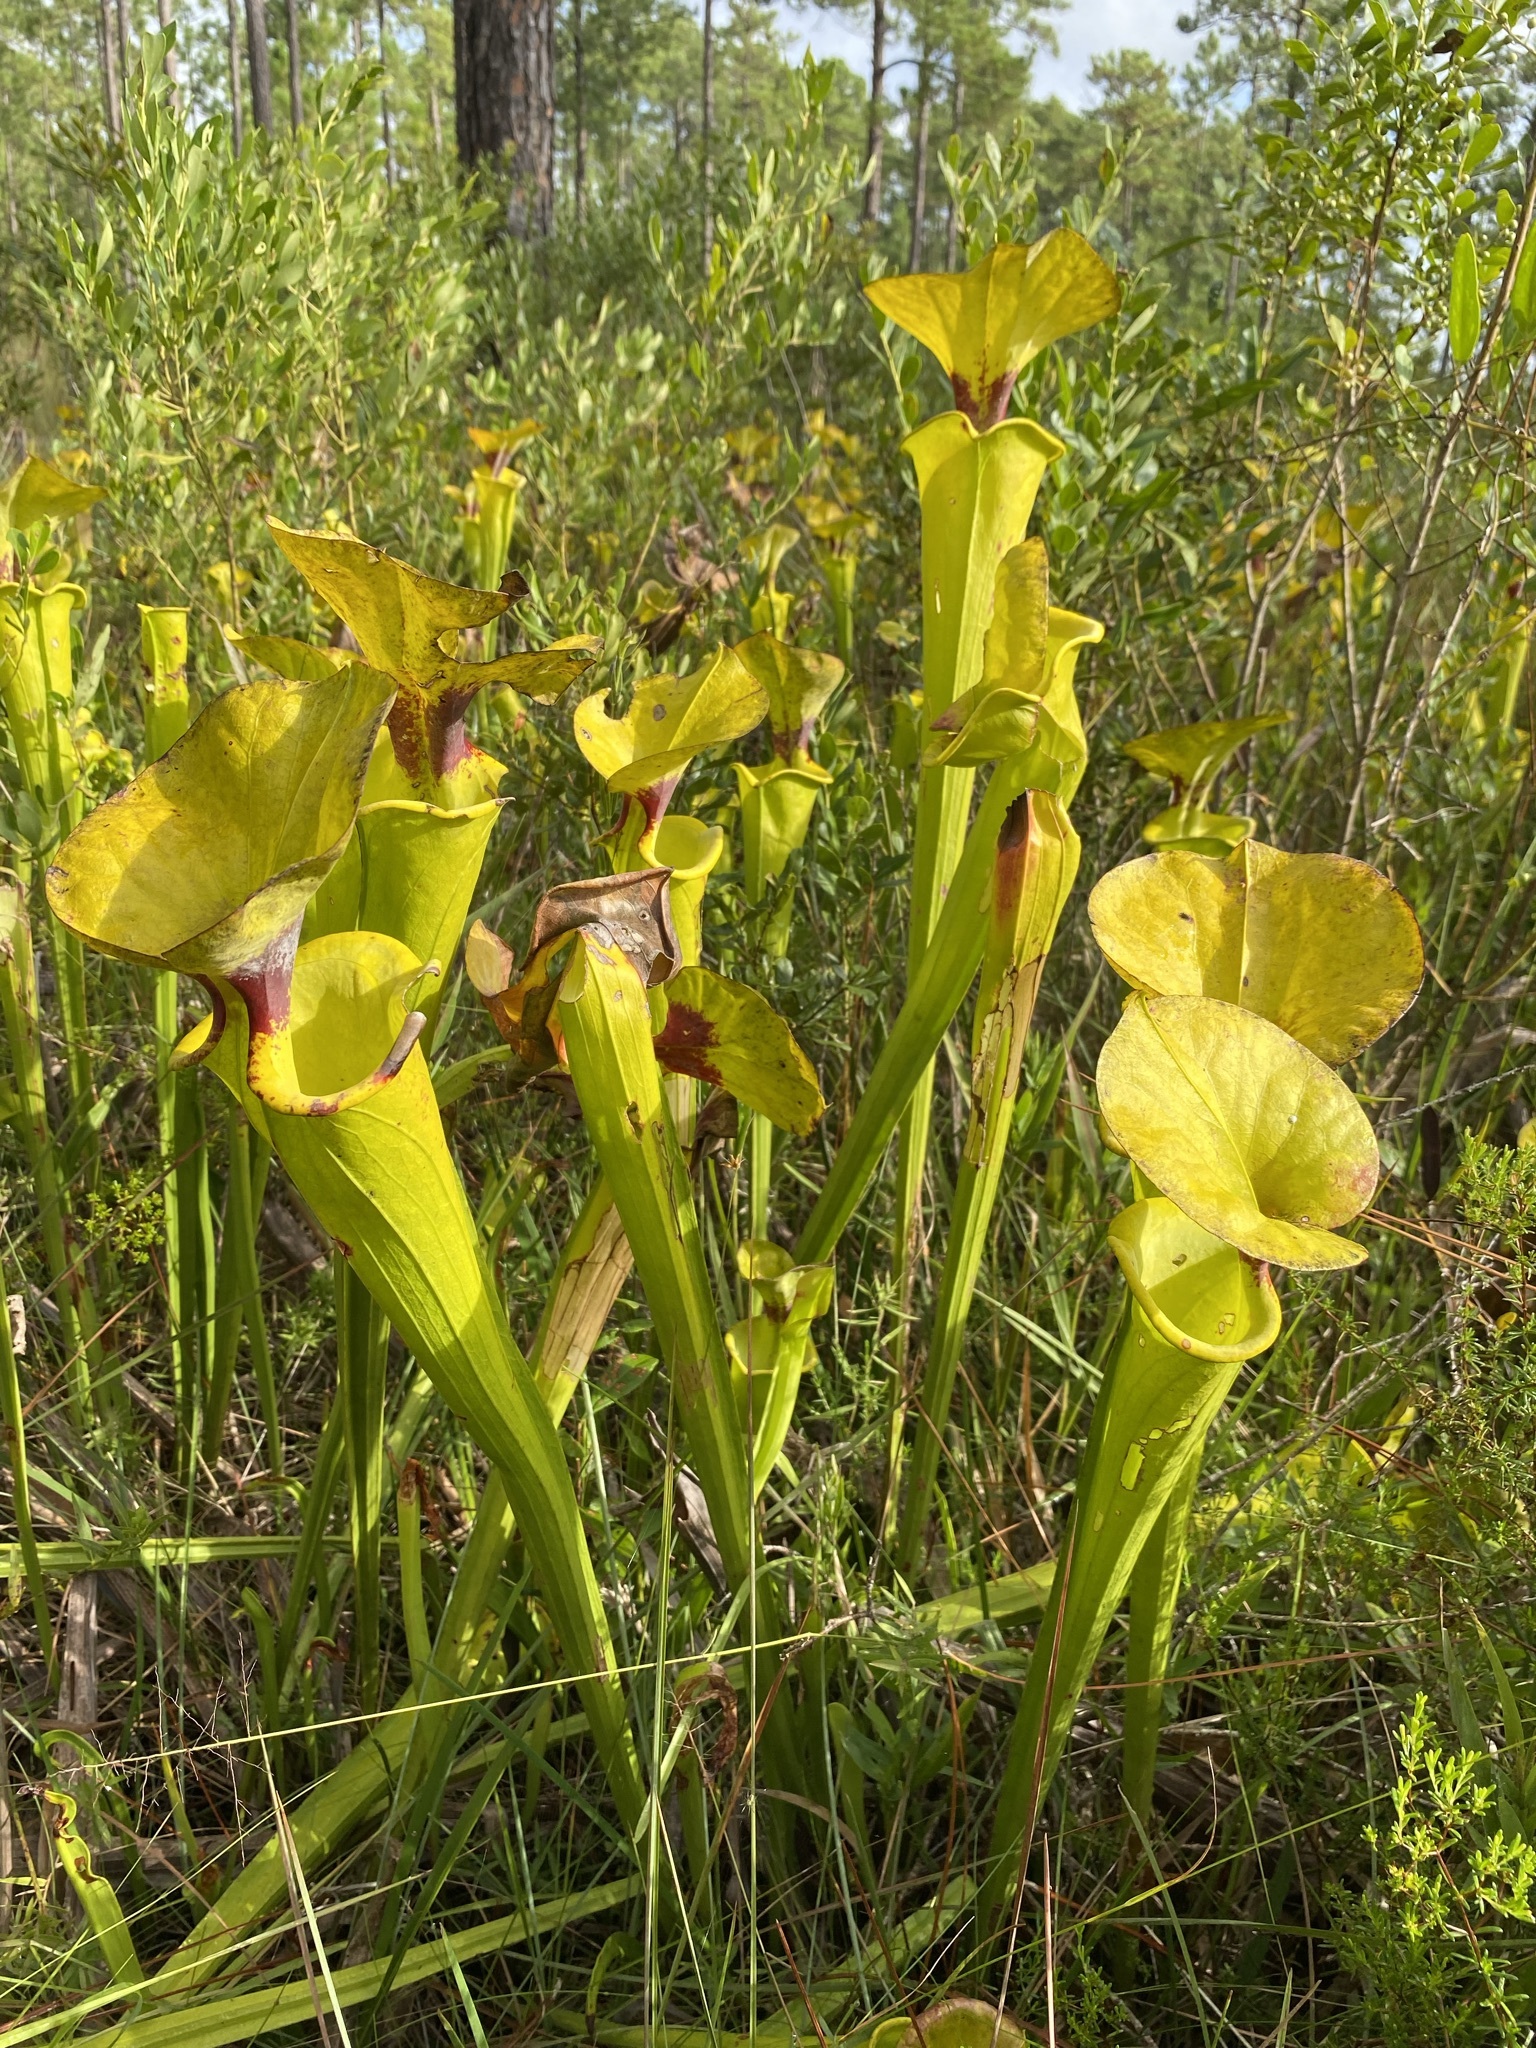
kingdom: Plantae
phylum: Tracheophyta
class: Magnoliopsida
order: Ericales
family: Sarraceniaceae
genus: Sarracenia
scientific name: Sarracenia flava
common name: Trumpets
